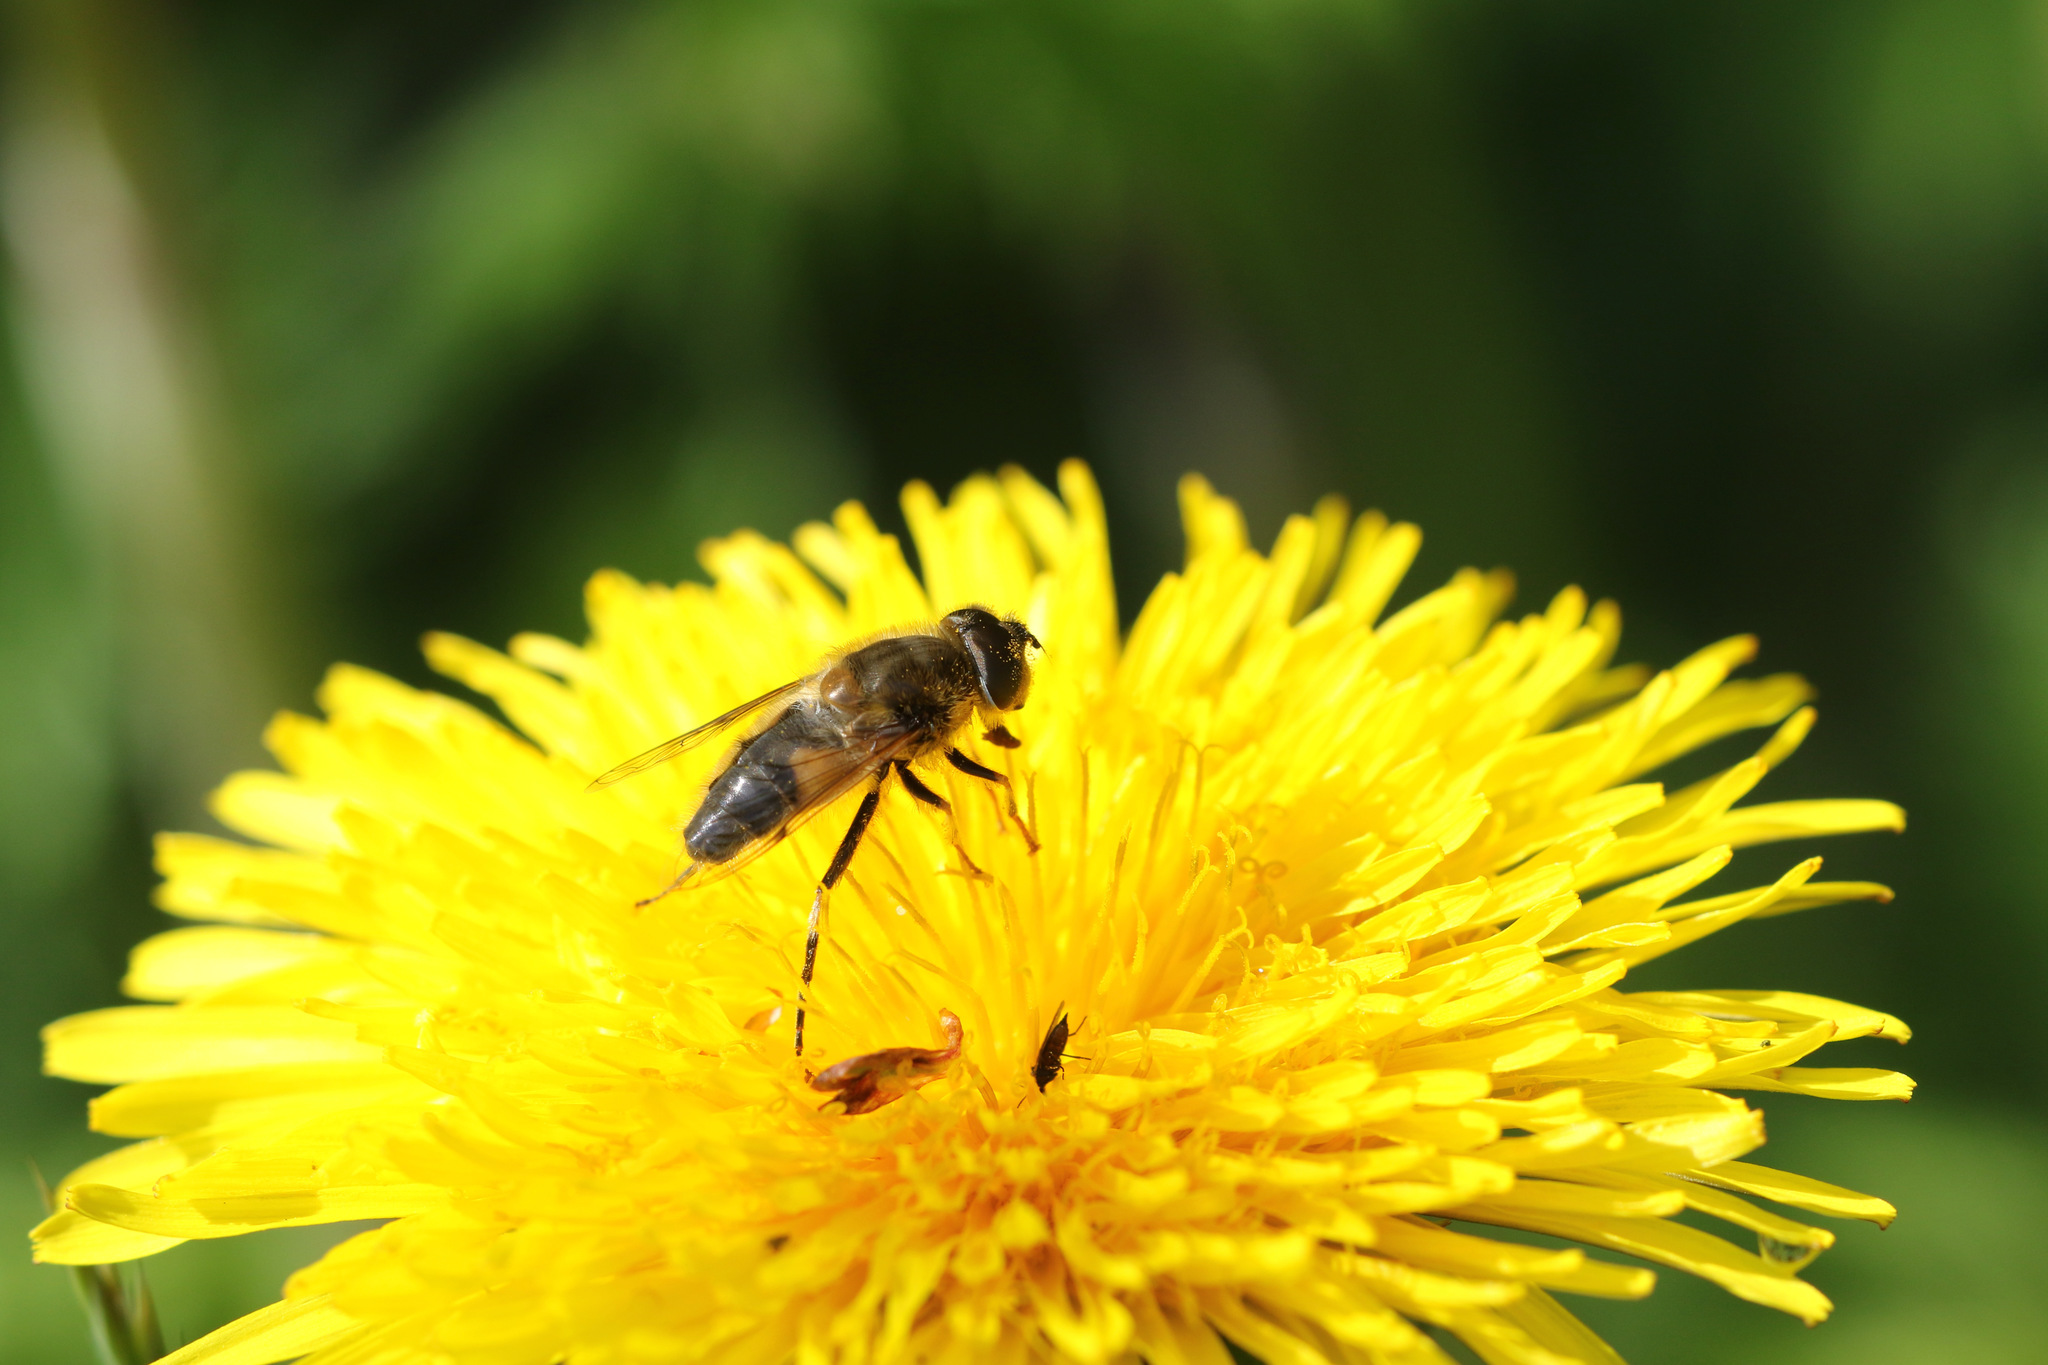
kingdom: Animalia
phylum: Arthropoda
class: Insecta
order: Diptera
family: Syrphidae
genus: Eristalis
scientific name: Eristalis pertinax
